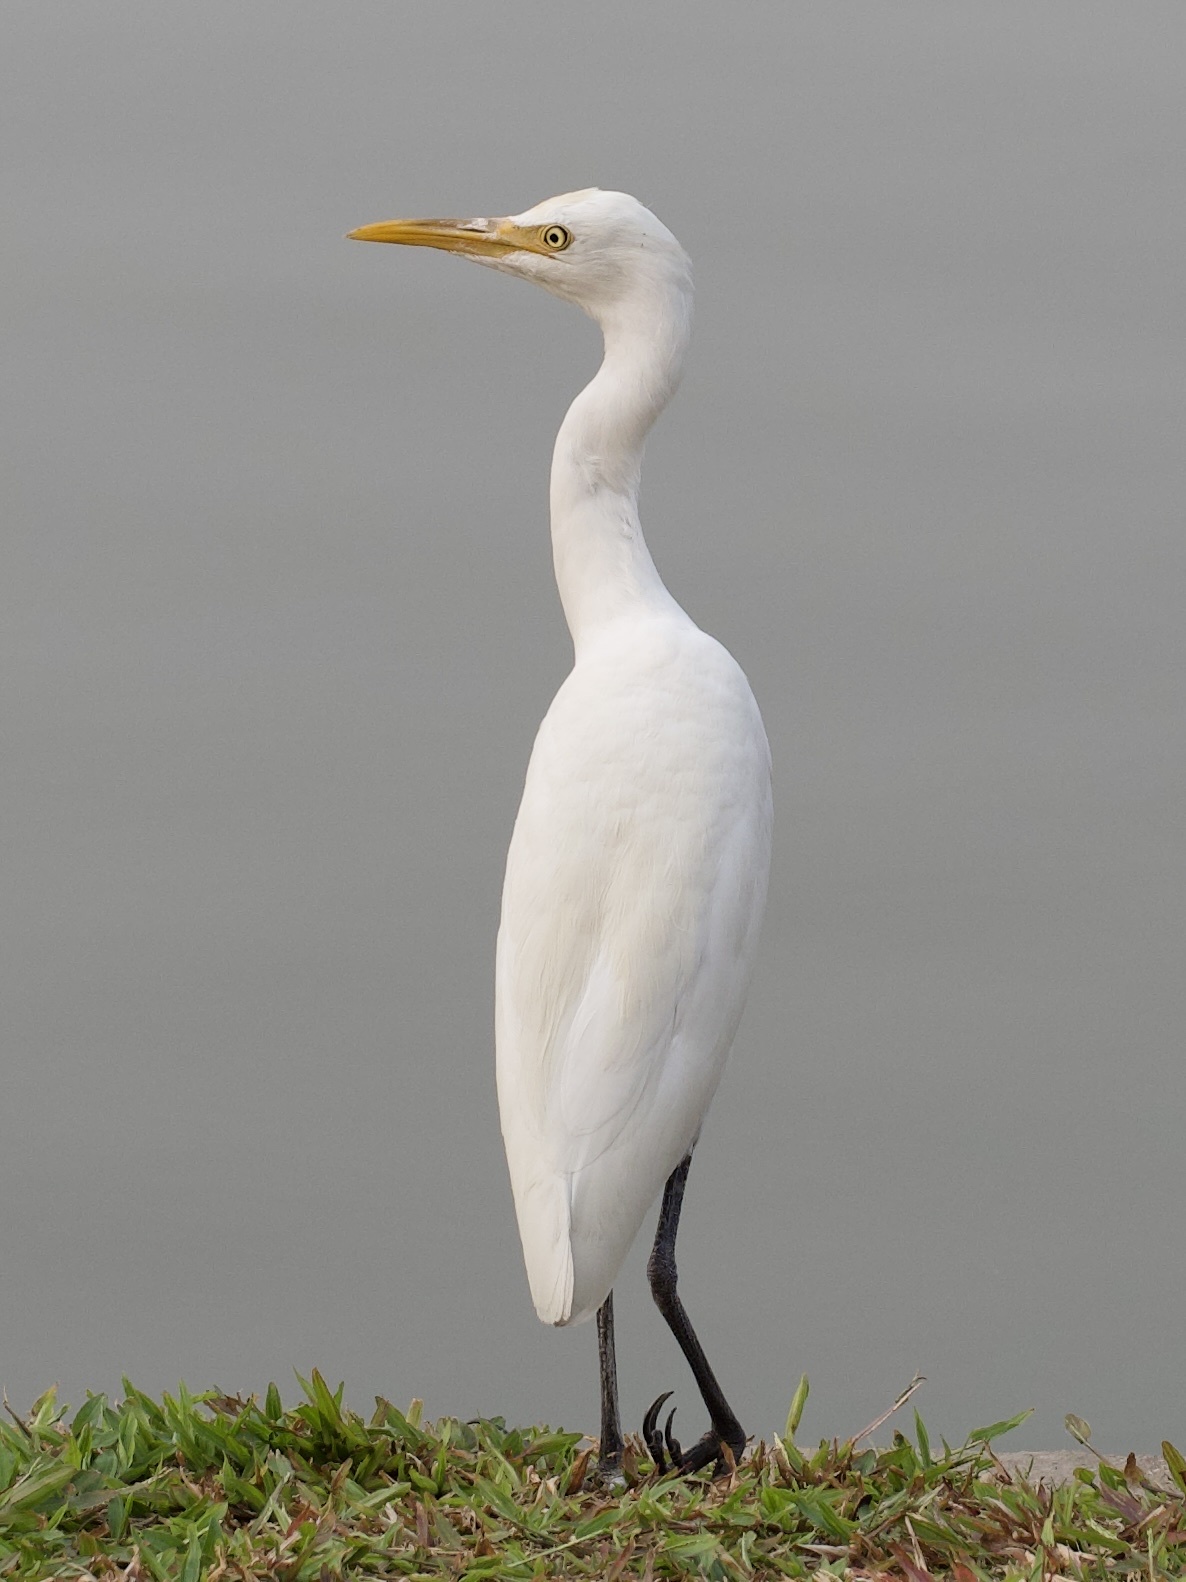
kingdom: Animalia
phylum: Chordata
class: Aves
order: Pelecaniformes
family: Ardeidae
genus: Bubulcus
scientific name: Bubulcus coromandus
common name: Eastern cattle egret
